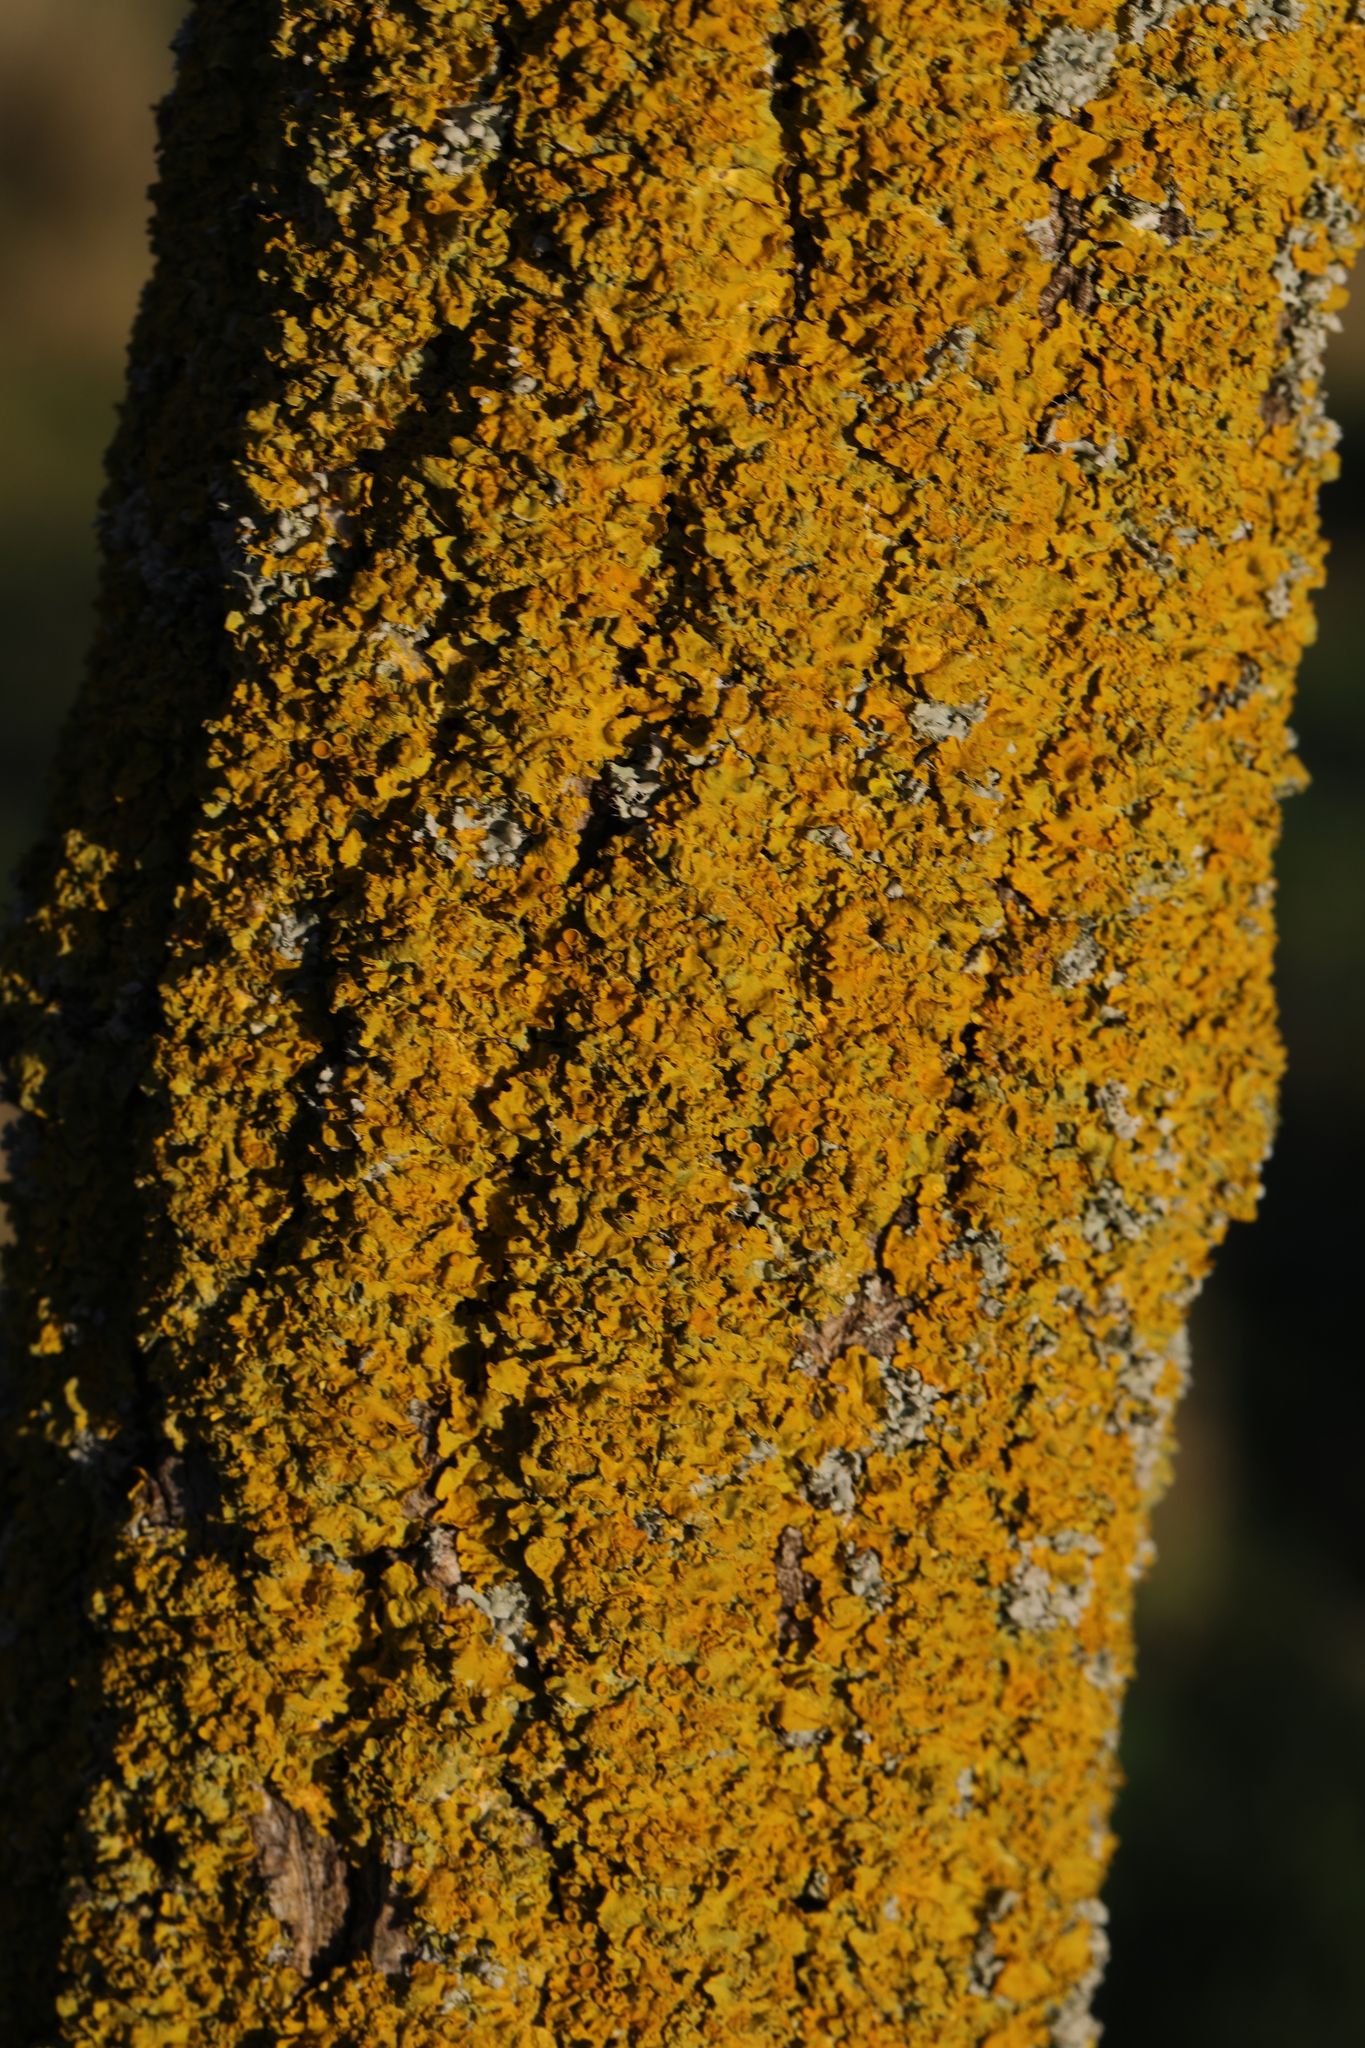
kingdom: Fungi
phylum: Ascomycota
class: Lecanoromycetes
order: Teloschistales
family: Teloschistaceae
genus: Xanthoria
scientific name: Xanthoria parietina
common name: Common orange lichen
